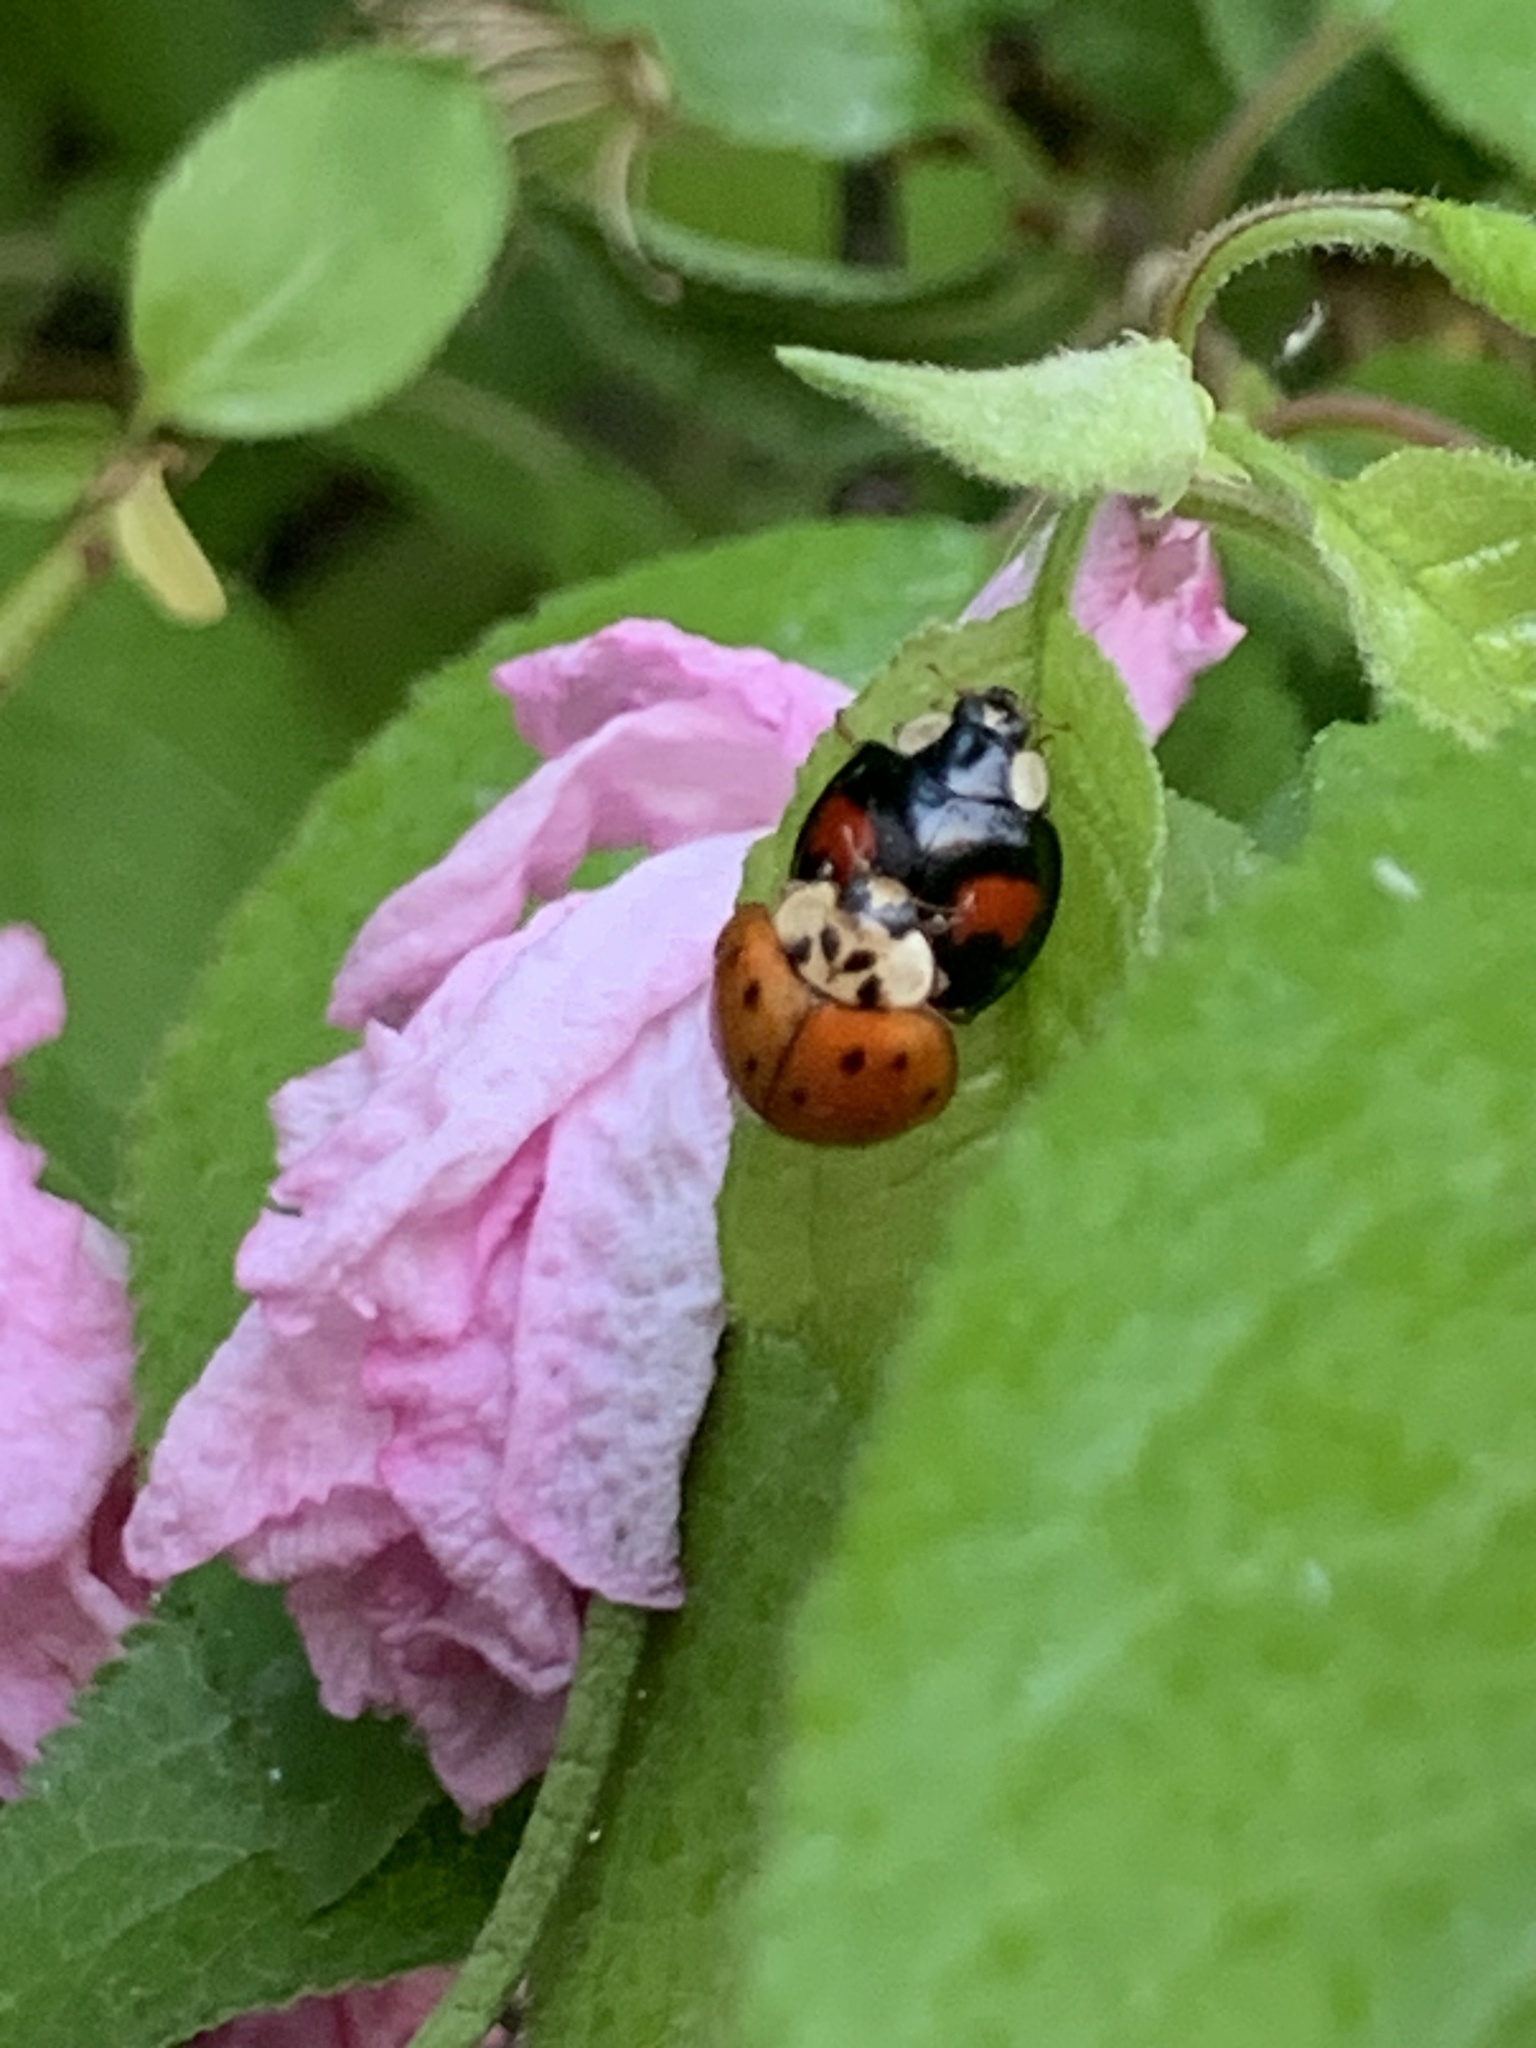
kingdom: Animalia
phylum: Arthropoda
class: Insecta
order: Coleoptera
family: Coccinellidae
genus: Harmonia
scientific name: Harmonia axyridis
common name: Harlequin ladybird
